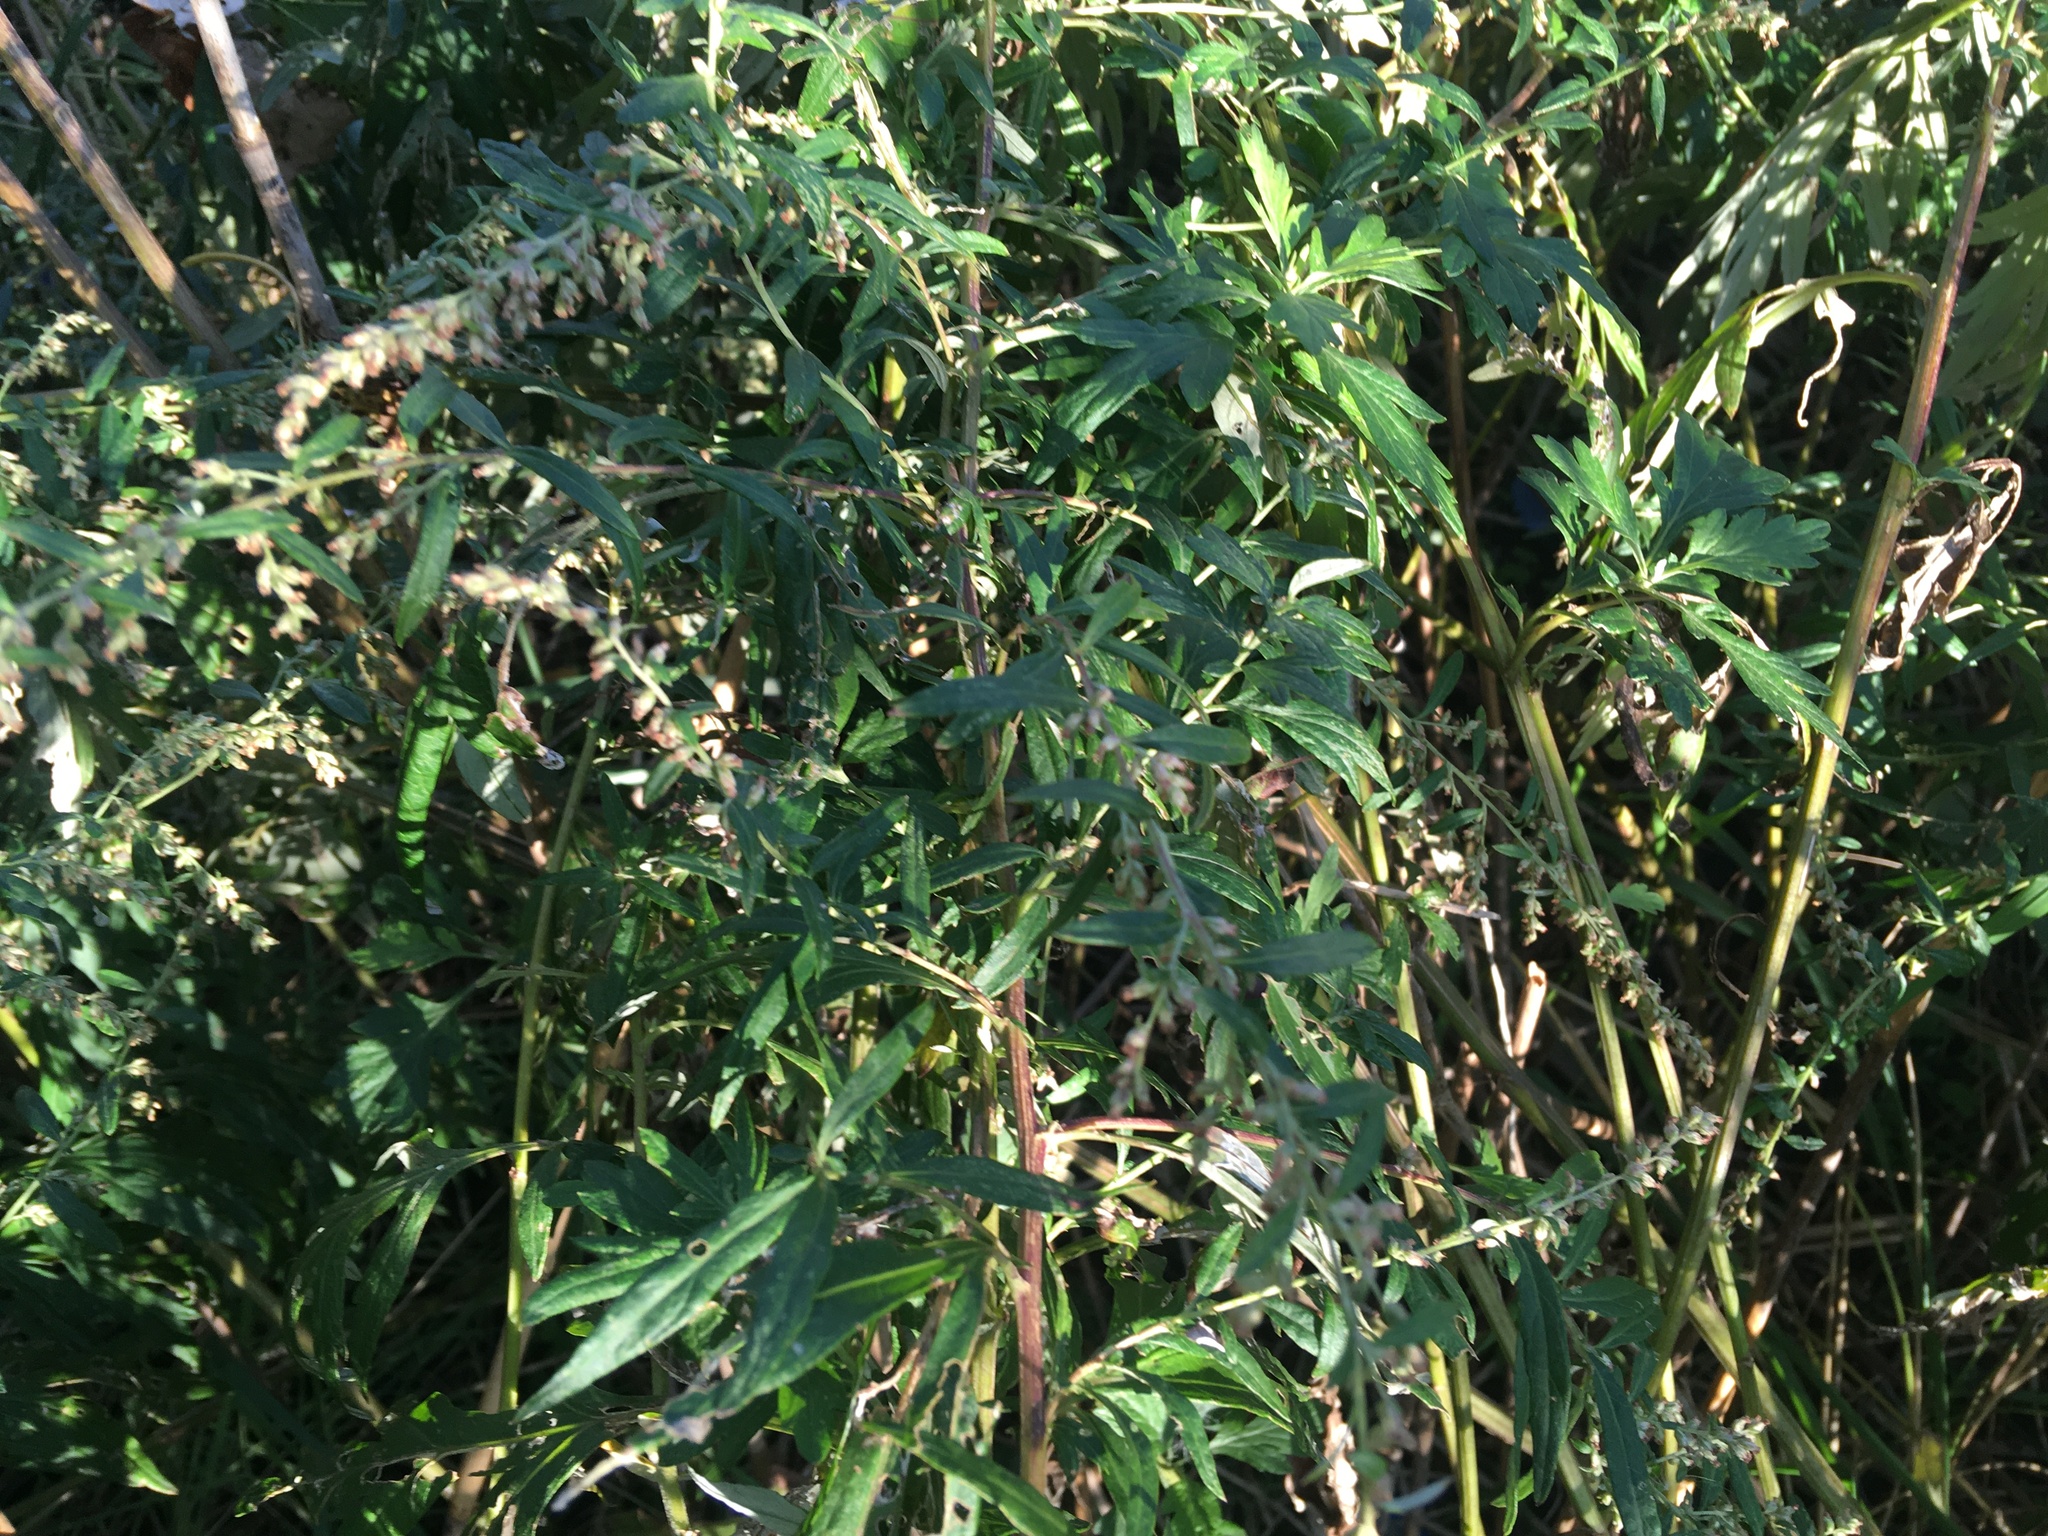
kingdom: Plantae
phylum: Tracheophyta
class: Magnoliopsida
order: Asterales
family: Asteraceae
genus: Artemisia
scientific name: Artemisia vulgaris
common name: Mugwort
